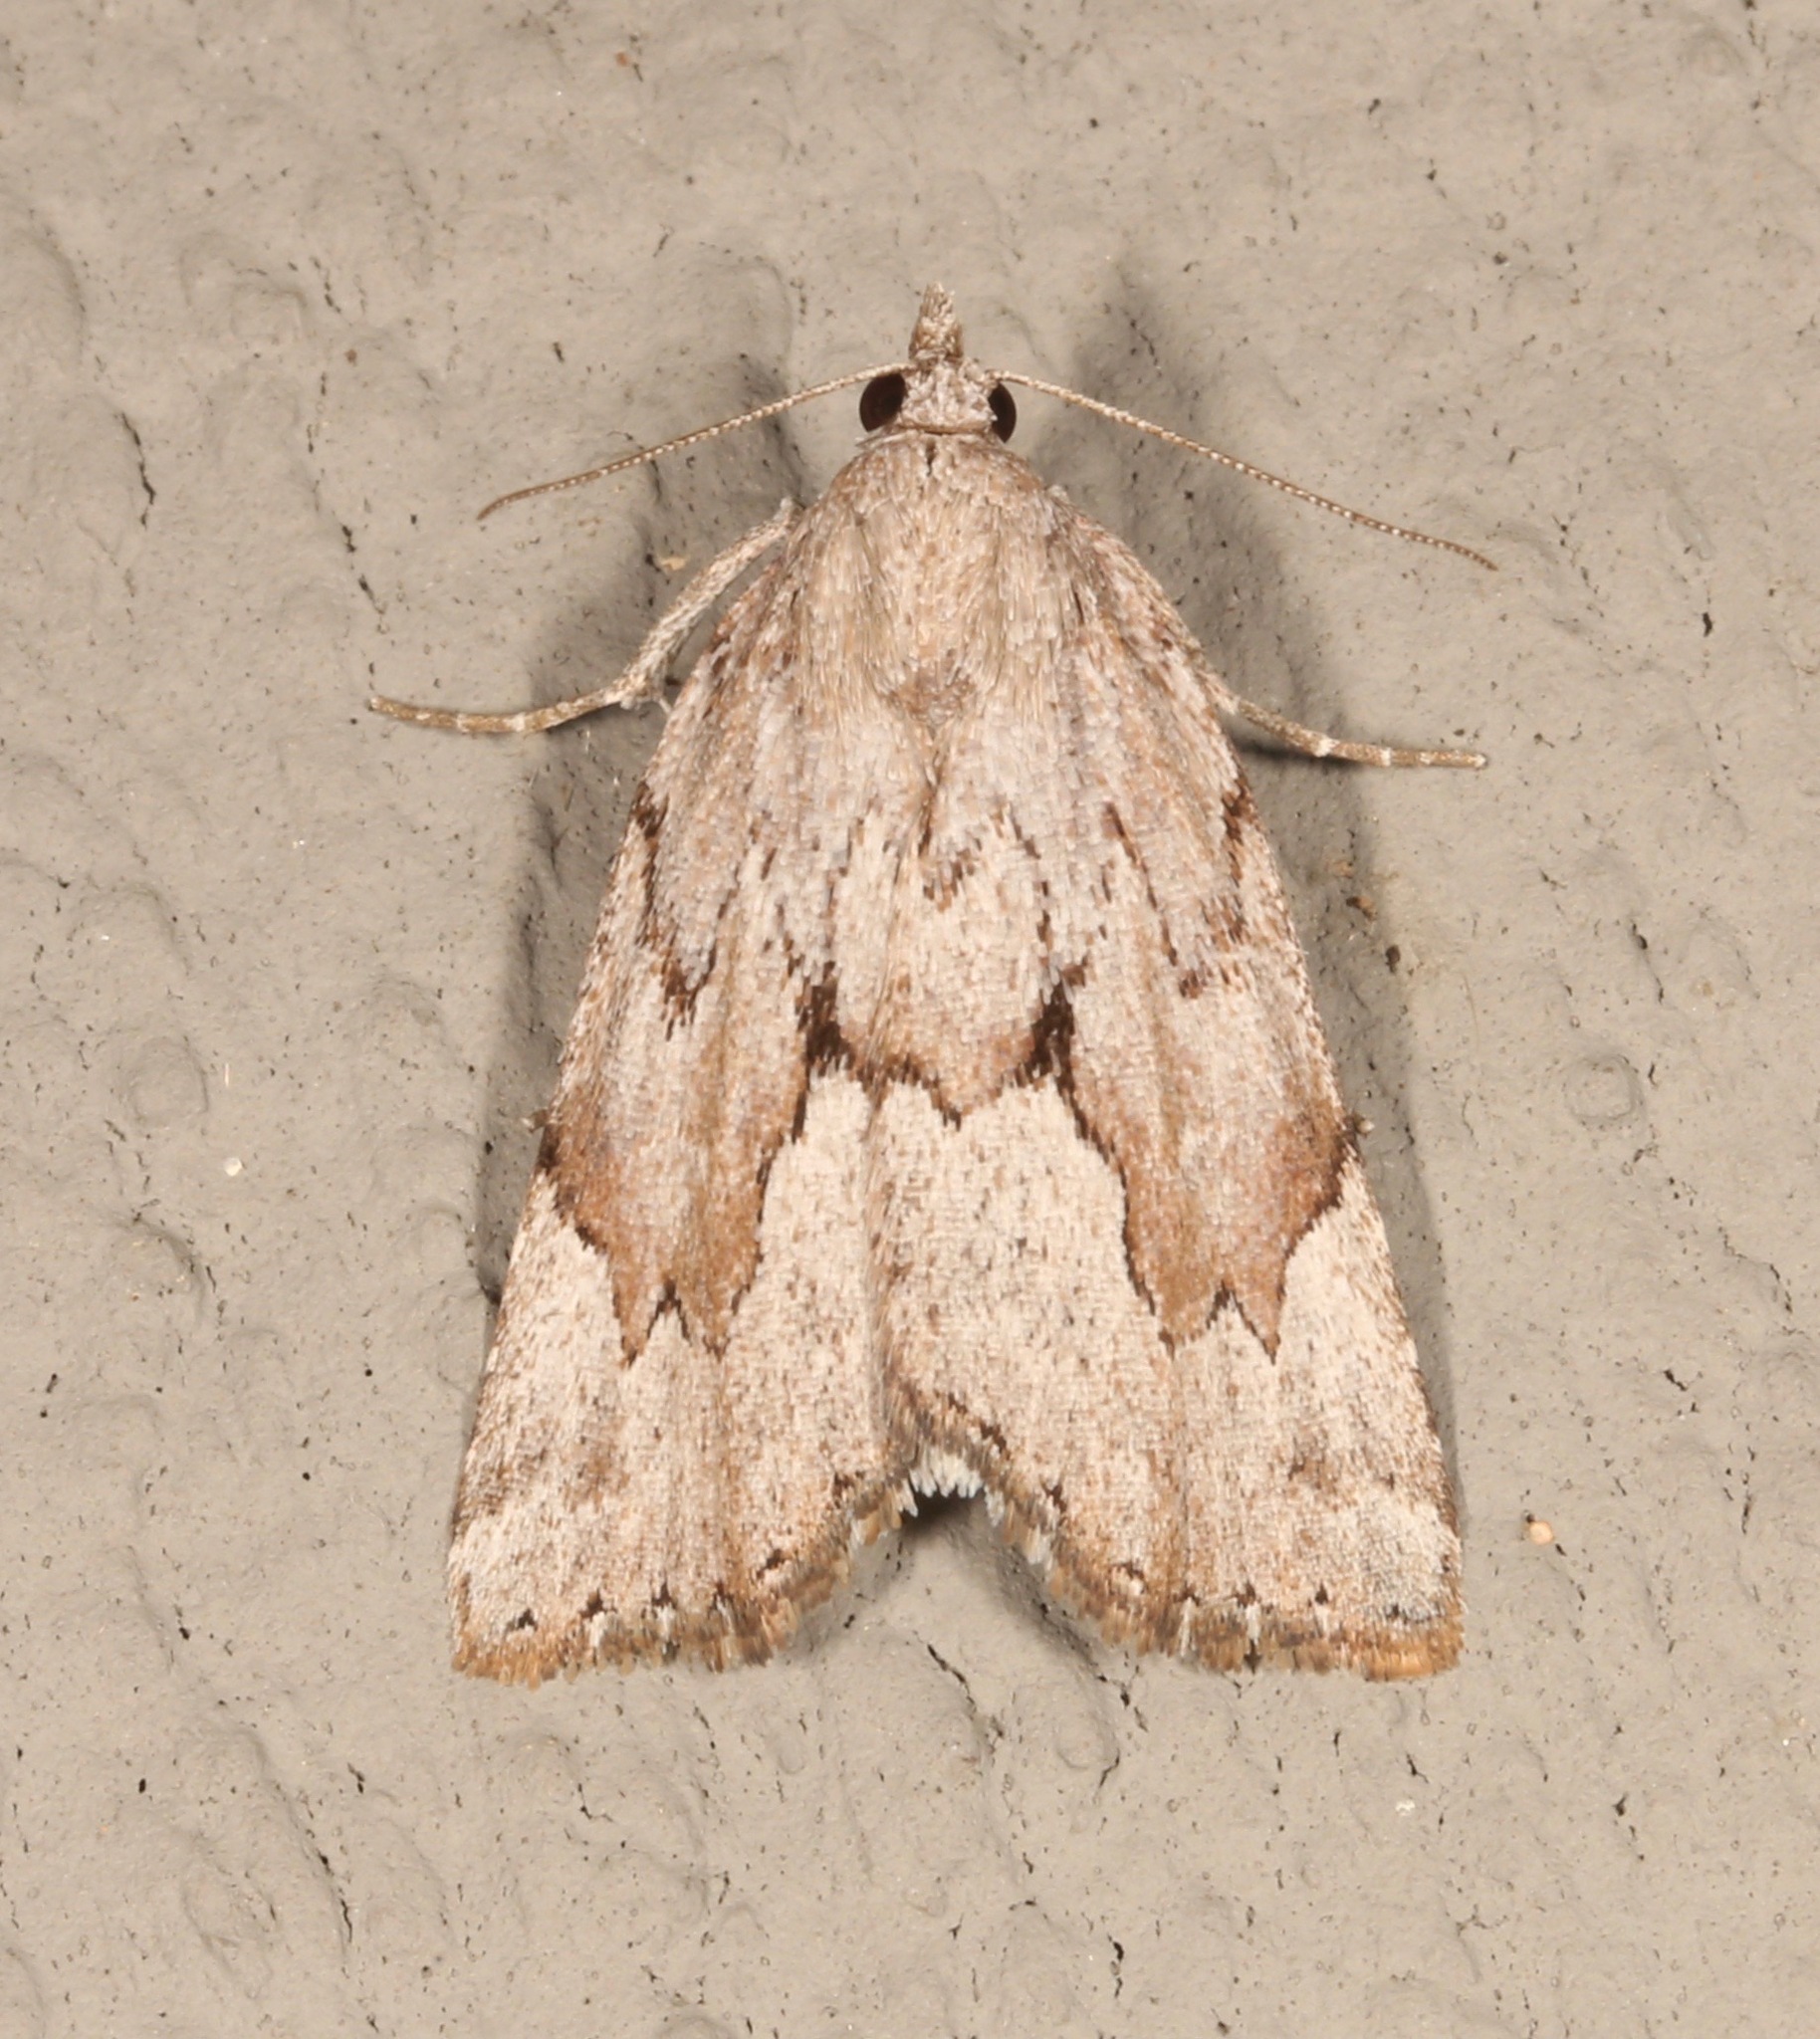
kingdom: Animalia
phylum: Arthropoda
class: Insecta
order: Lepidoptera
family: Erebidae
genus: Cutina
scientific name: Cutina albopunctella
